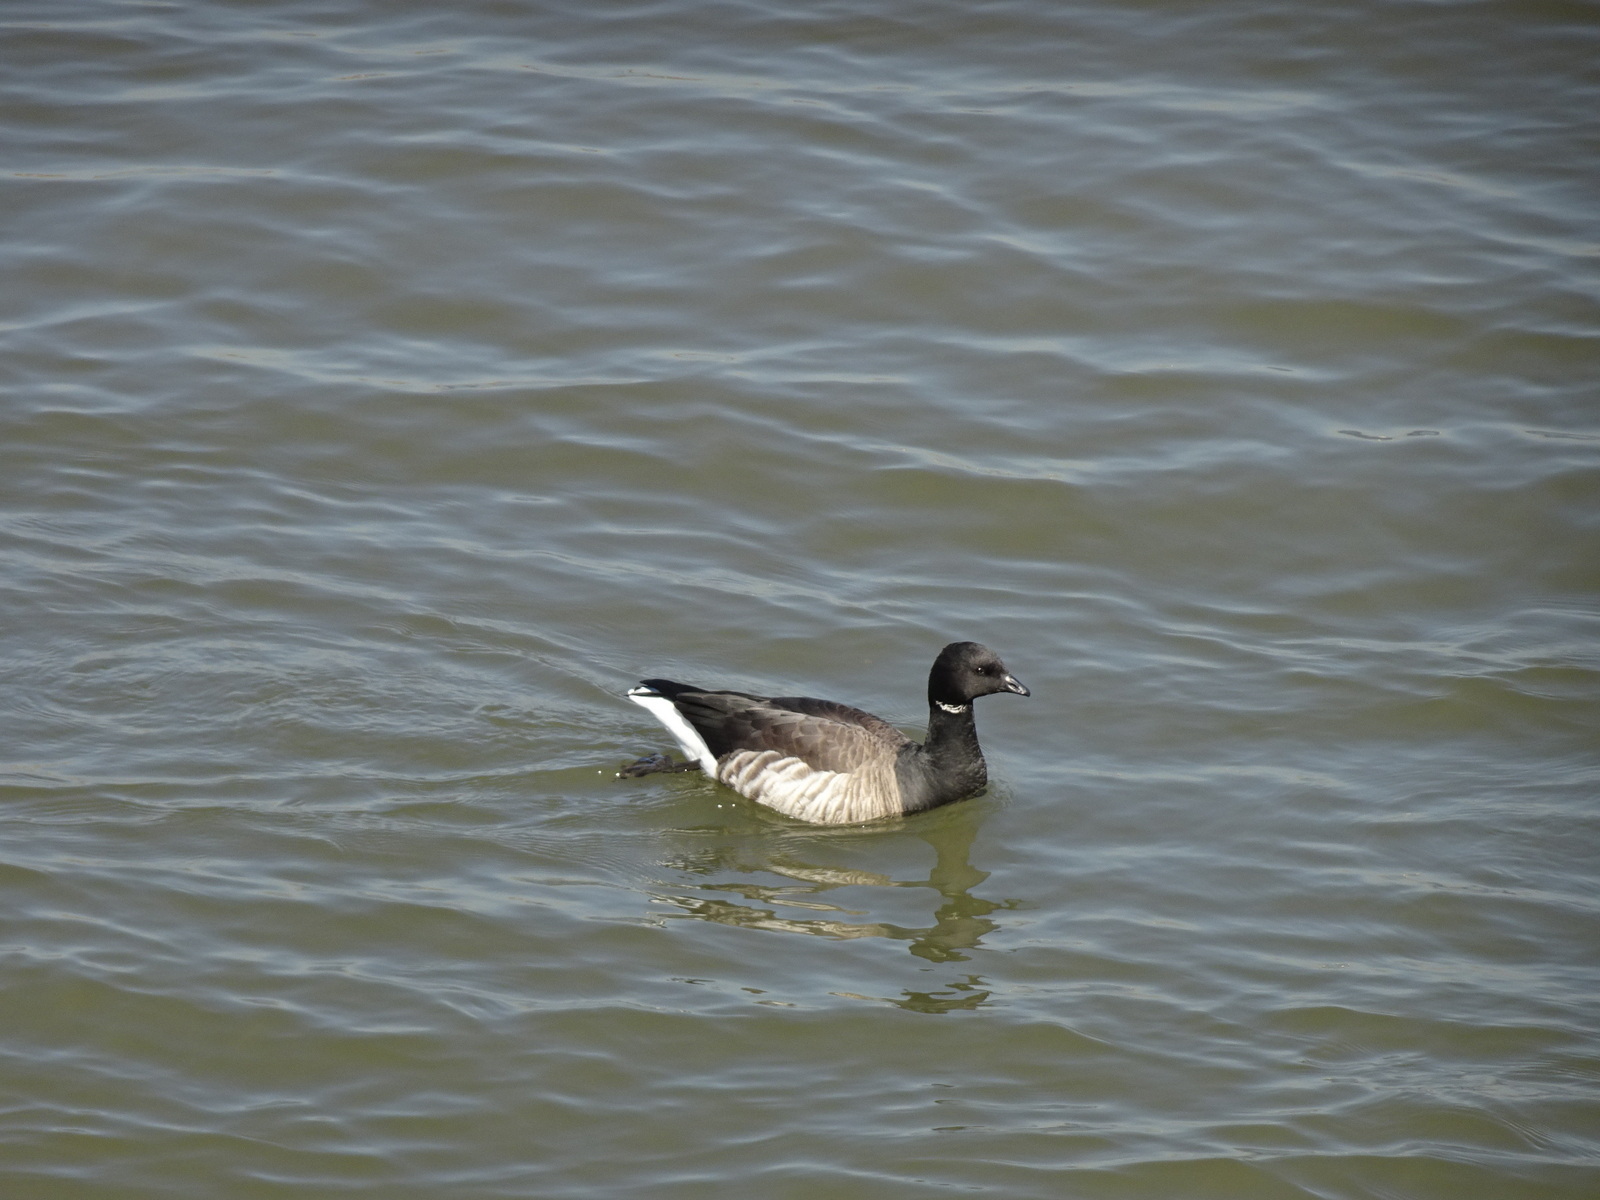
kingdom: Animalia
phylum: Chordata
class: Aves
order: Anseriformes
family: Anatidae
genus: Branta
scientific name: Branta bernicla
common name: Brant goose
